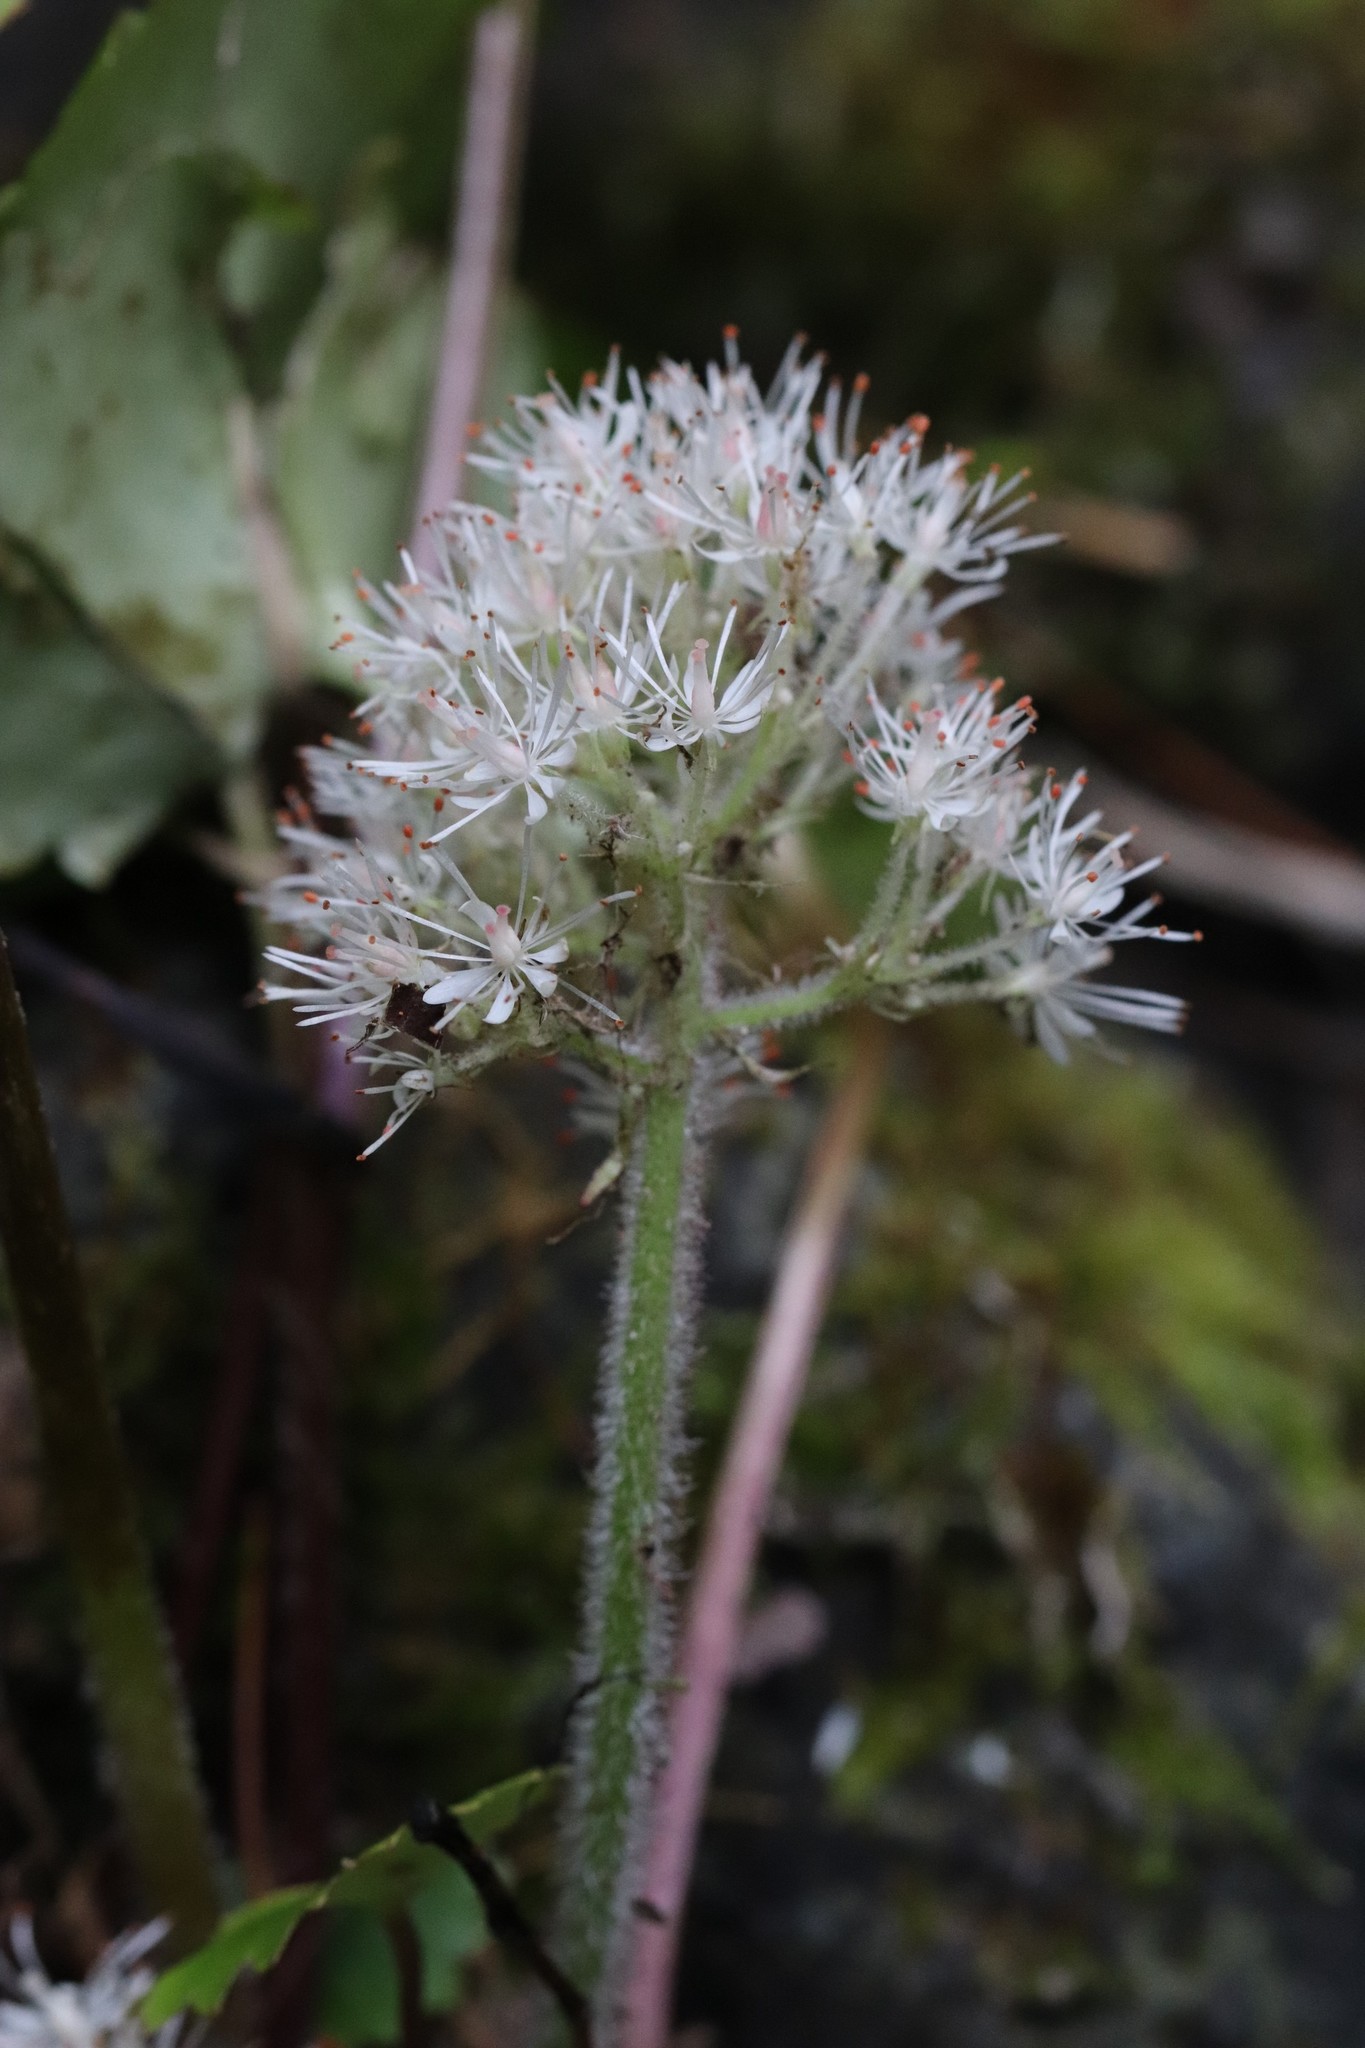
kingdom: Plantae
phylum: Tracheophyta
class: Magnoliopsida
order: Saxifragales
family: Saxifragaceae
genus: Micranthes
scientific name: Micranthes manchuriensis
